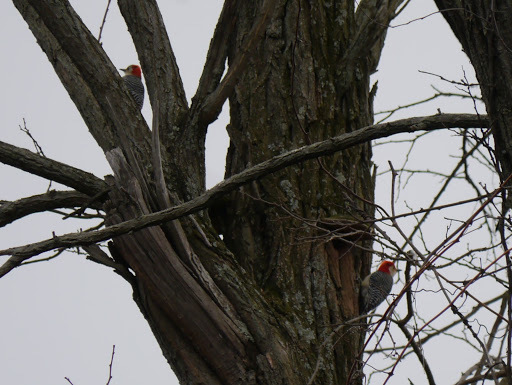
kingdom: Animalia
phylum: Chordata
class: Aves
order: Piciformes
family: Picidae
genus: Melanerpes
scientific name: Melanerpes carolinus
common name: Red-bellied woodpecker
